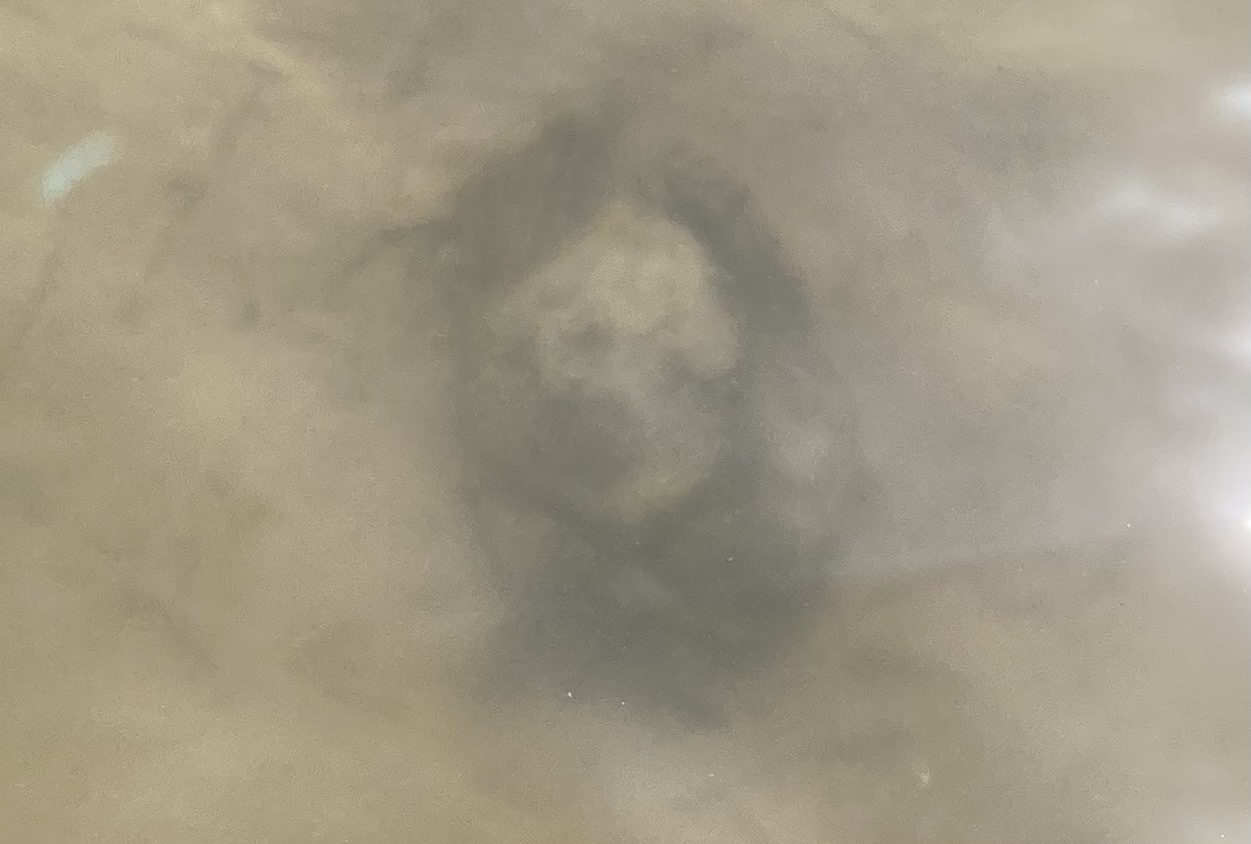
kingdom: Animalia
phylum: Arthropoda
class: Malacostraca
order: Decapoda
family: Carcinidae
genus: Carcinus
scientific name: Carcinus maenas
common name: European green crab
